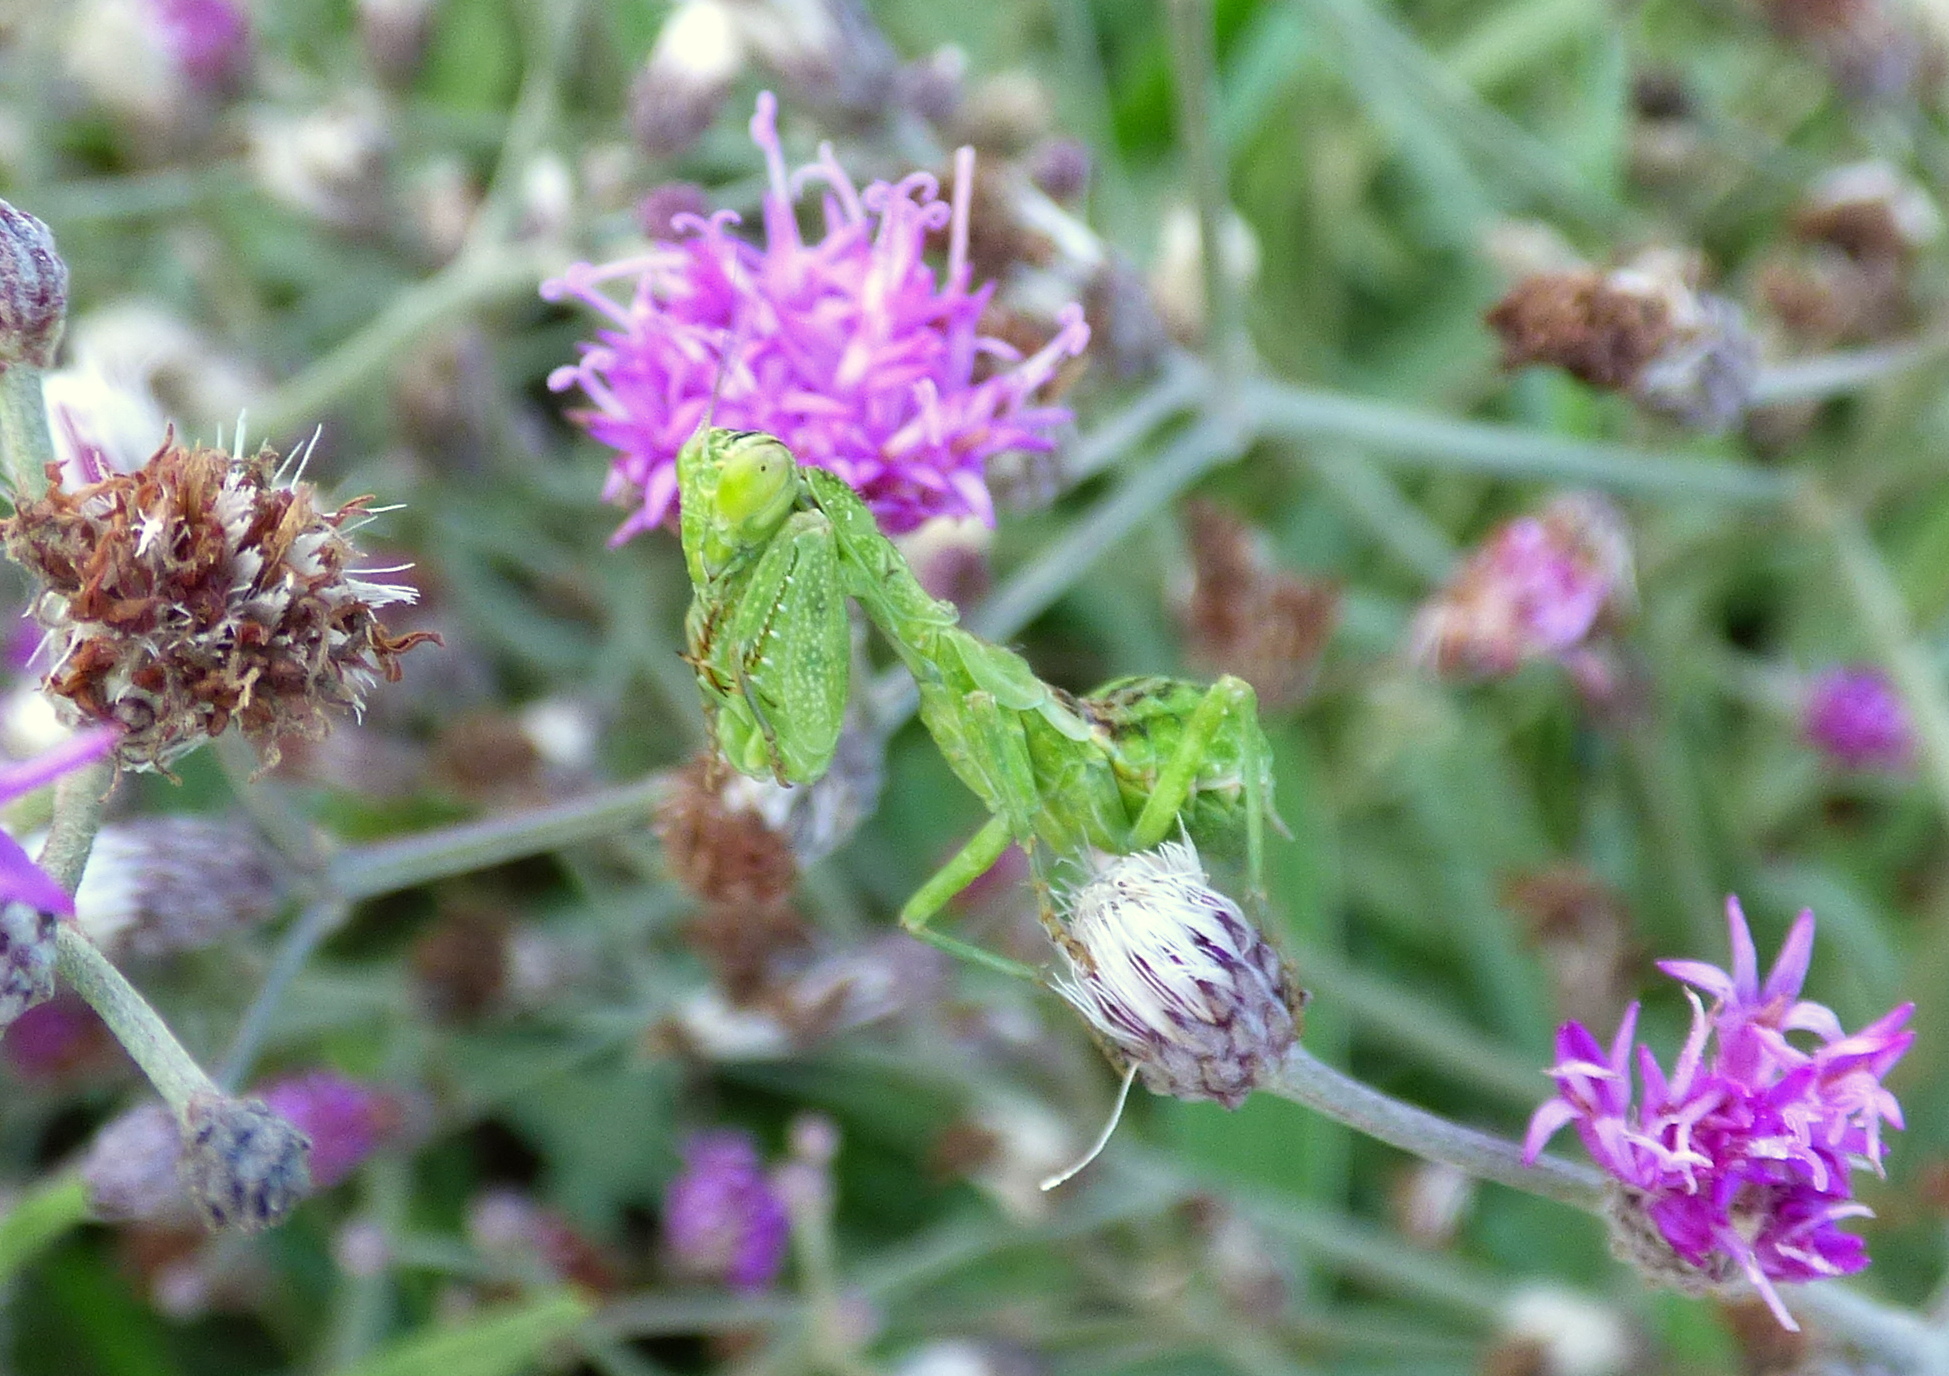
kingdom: Animalia
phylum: Arthropoda
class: Insecta
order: Mantodea
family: Acanthopidae
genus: Acontista
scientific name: Acontista
